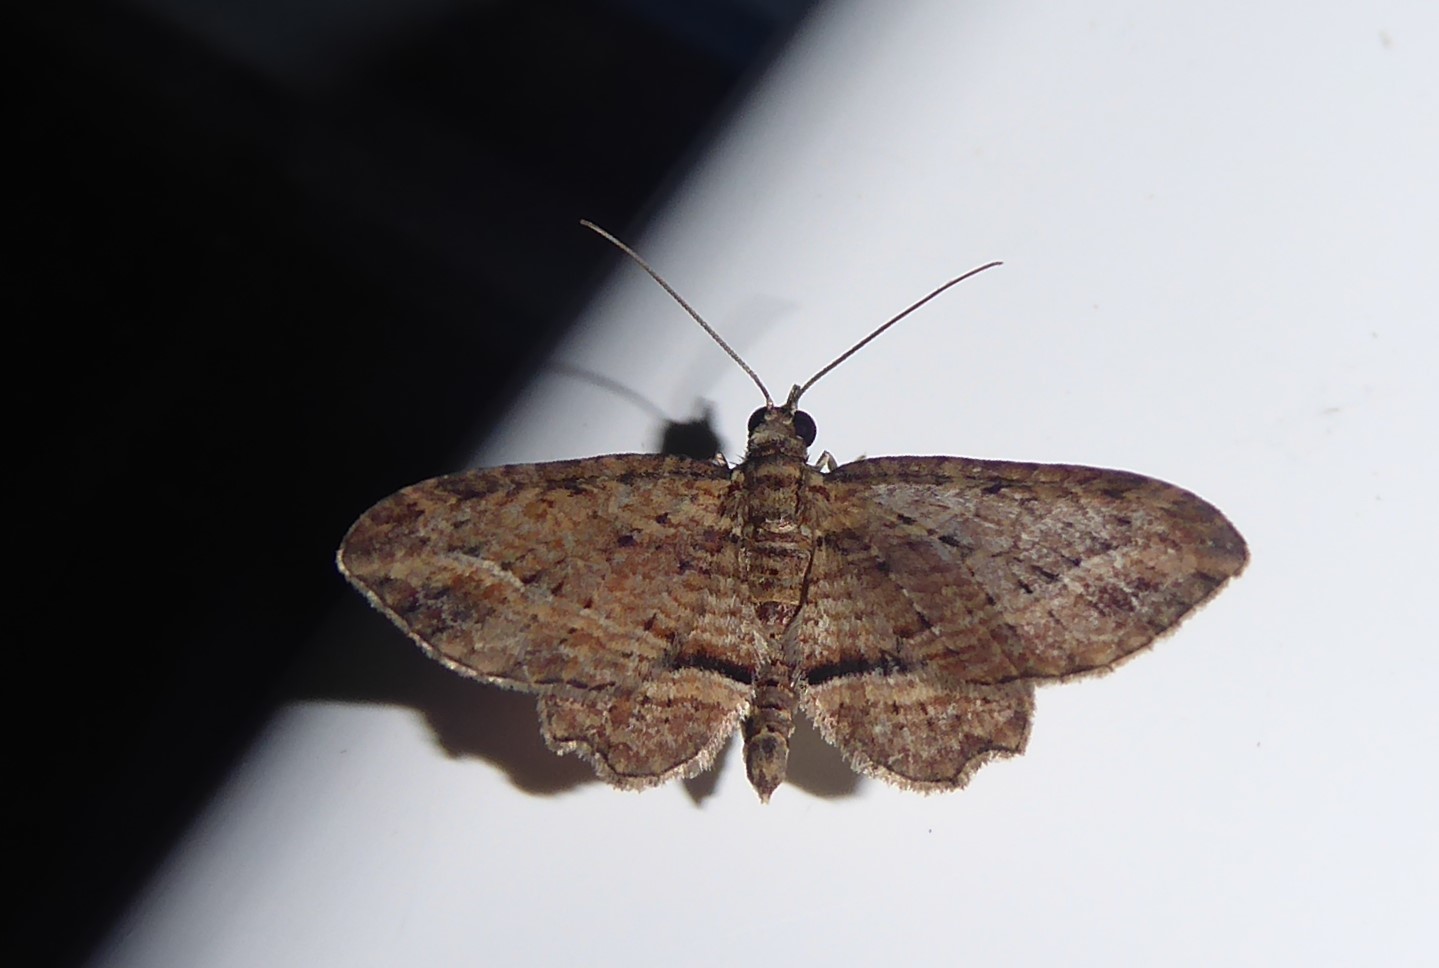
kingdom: Animalia
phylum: Arthropoda
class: Insecta
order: Lepidoptera
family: Geometridae
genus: Chloroclystis
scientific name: Chloroclystis filata
